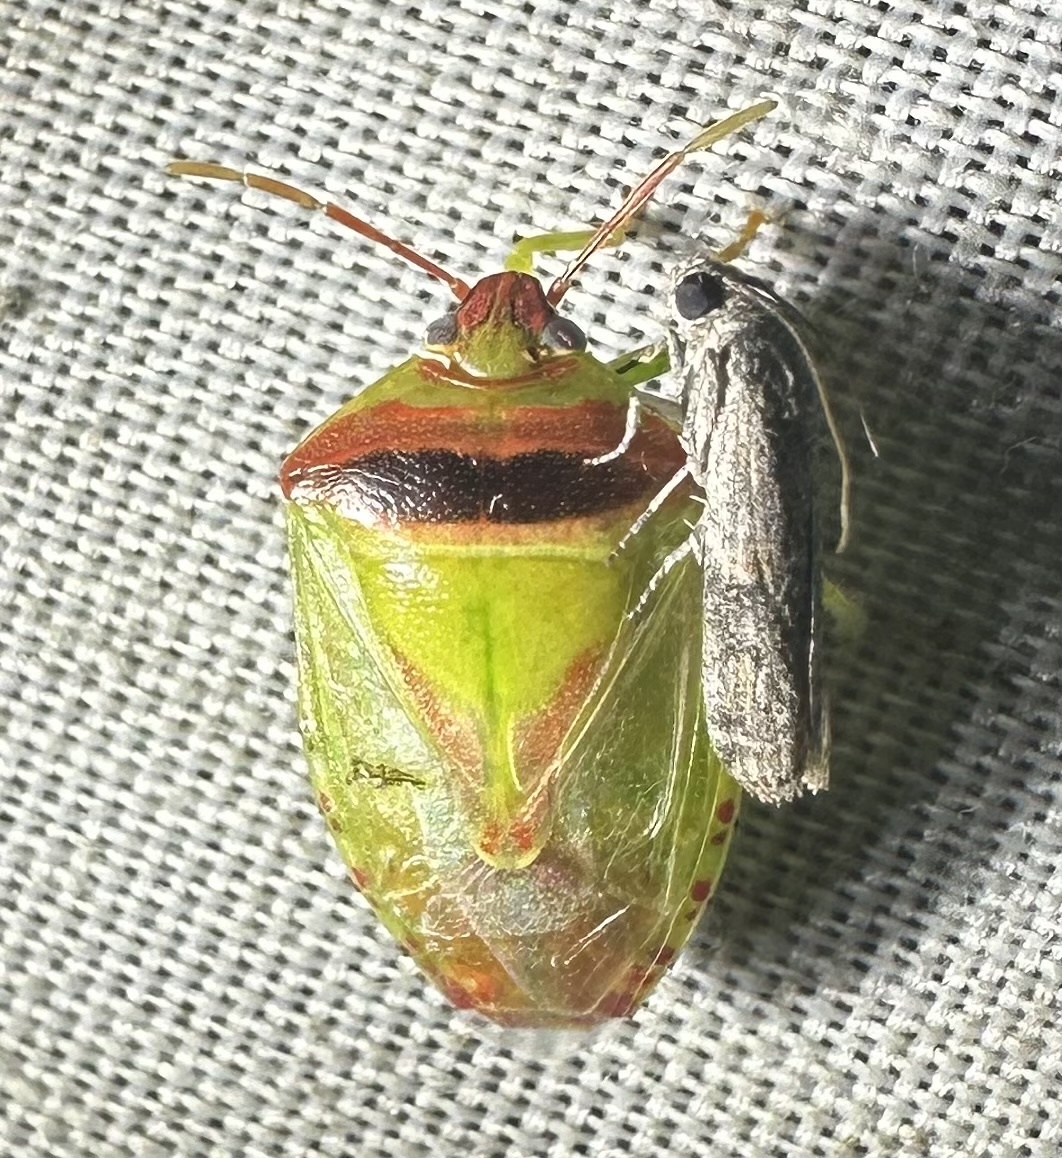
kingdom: Animalia
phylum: Arthropoda
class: Insecta
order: Hemiptera
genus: Pausias
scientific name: Pausias
